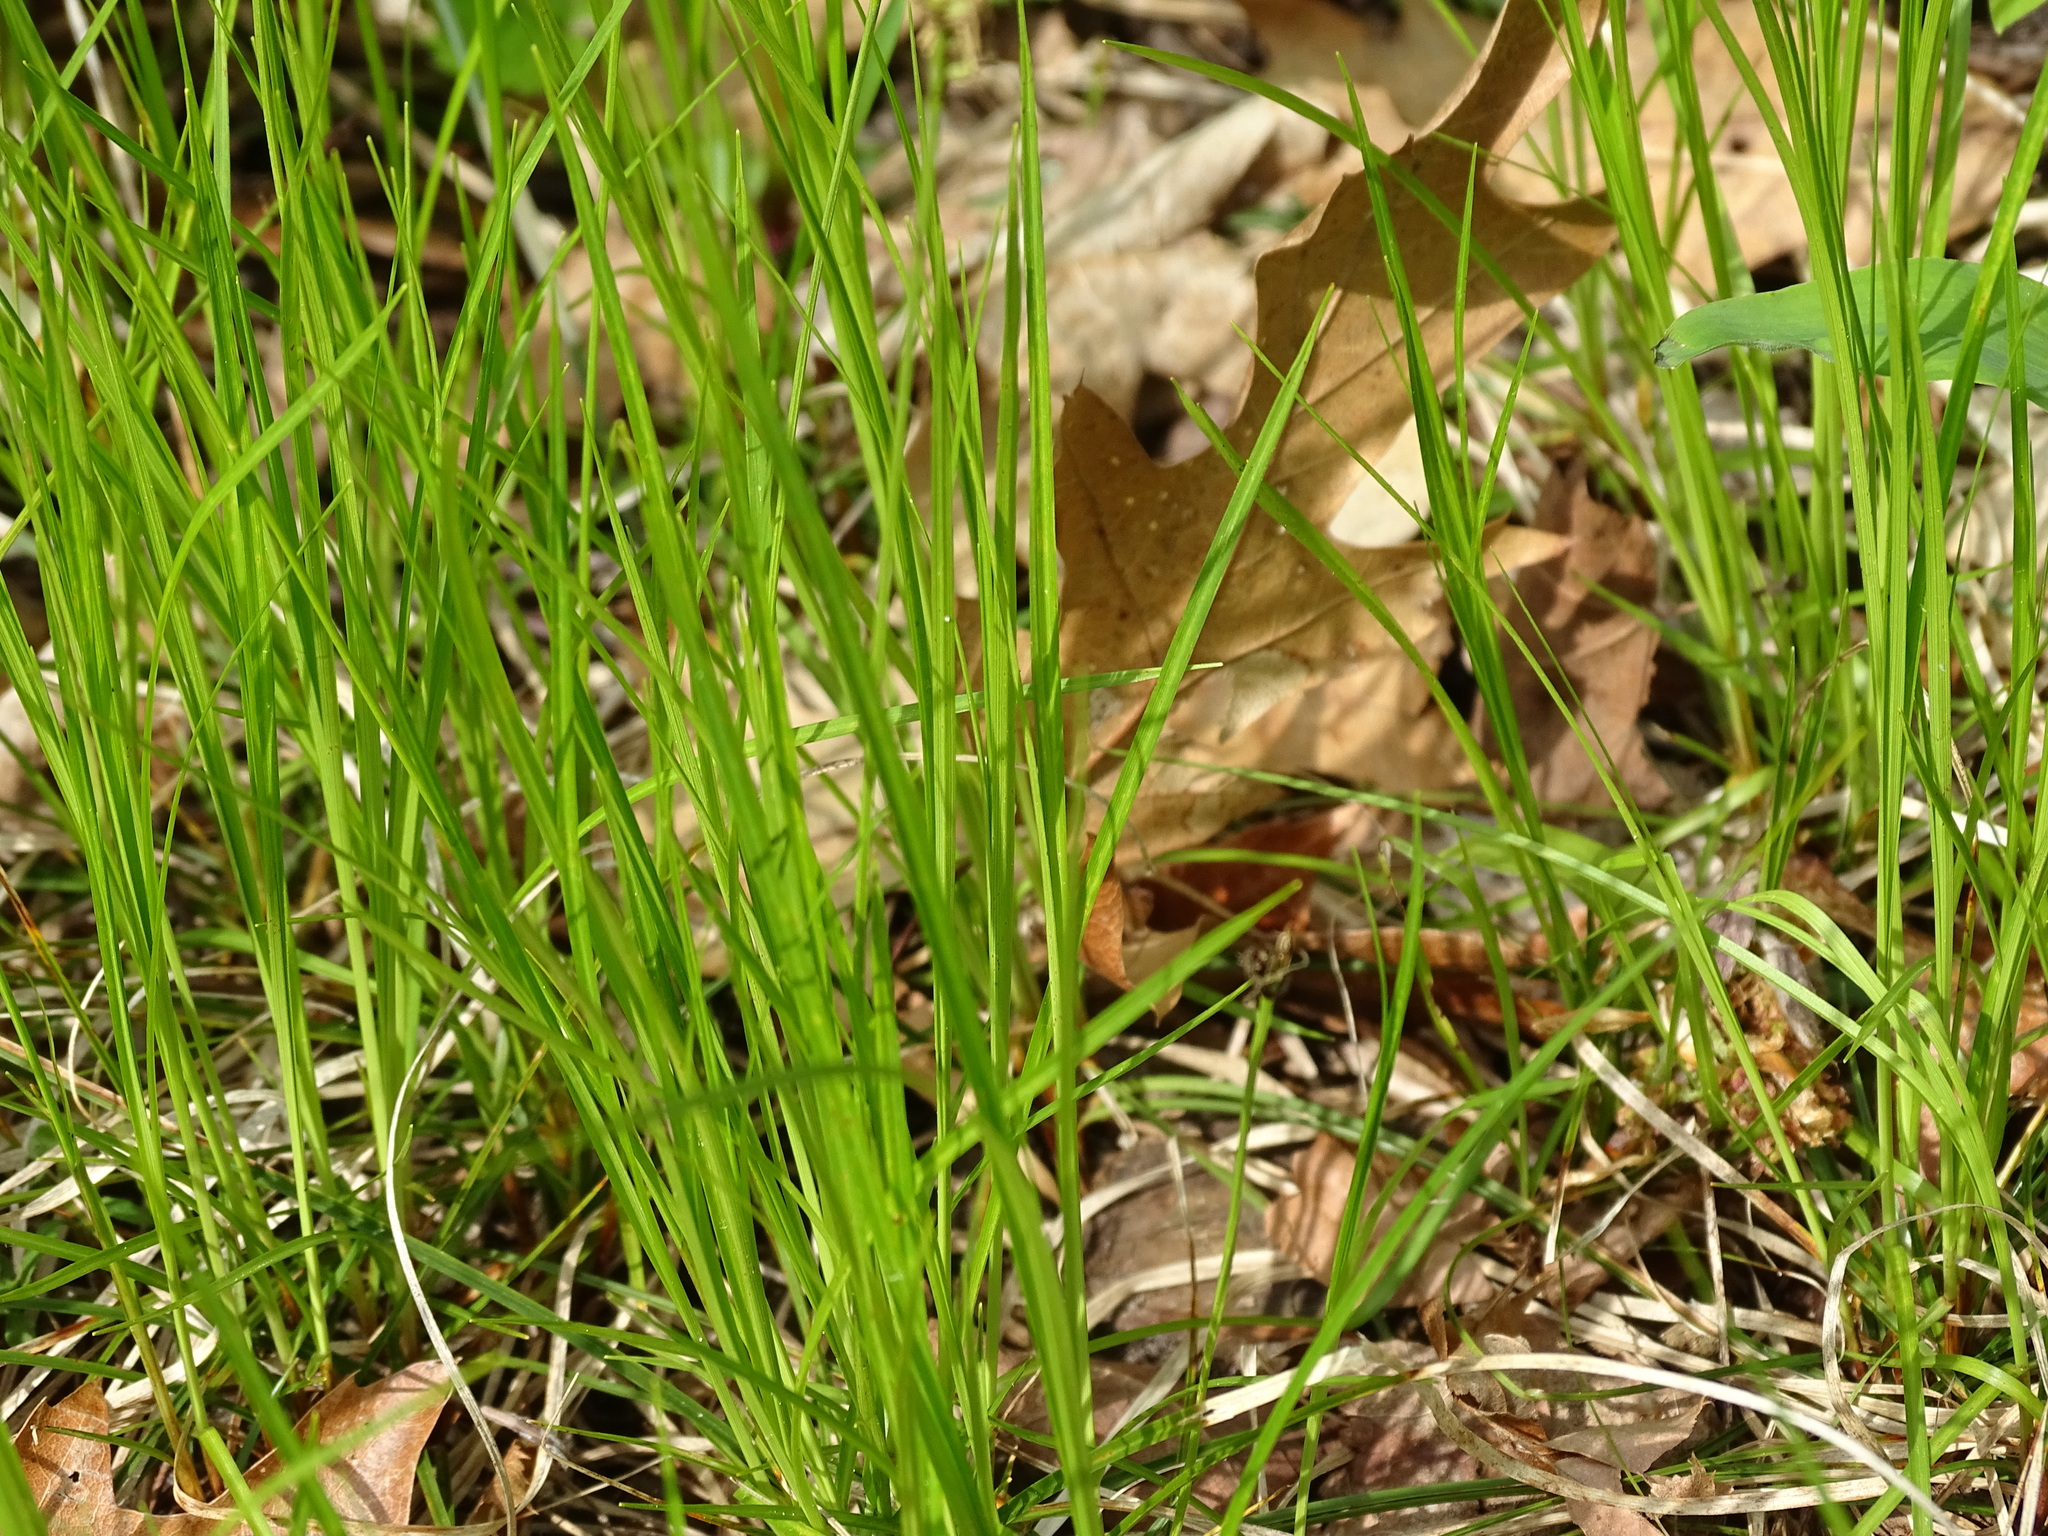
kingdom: Plantae
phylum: Tracheophyta
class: Liliopsida
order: Poales
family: Cyperaceae
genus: Carex
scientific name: Carex pensylvanica
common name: Common oak sedge
